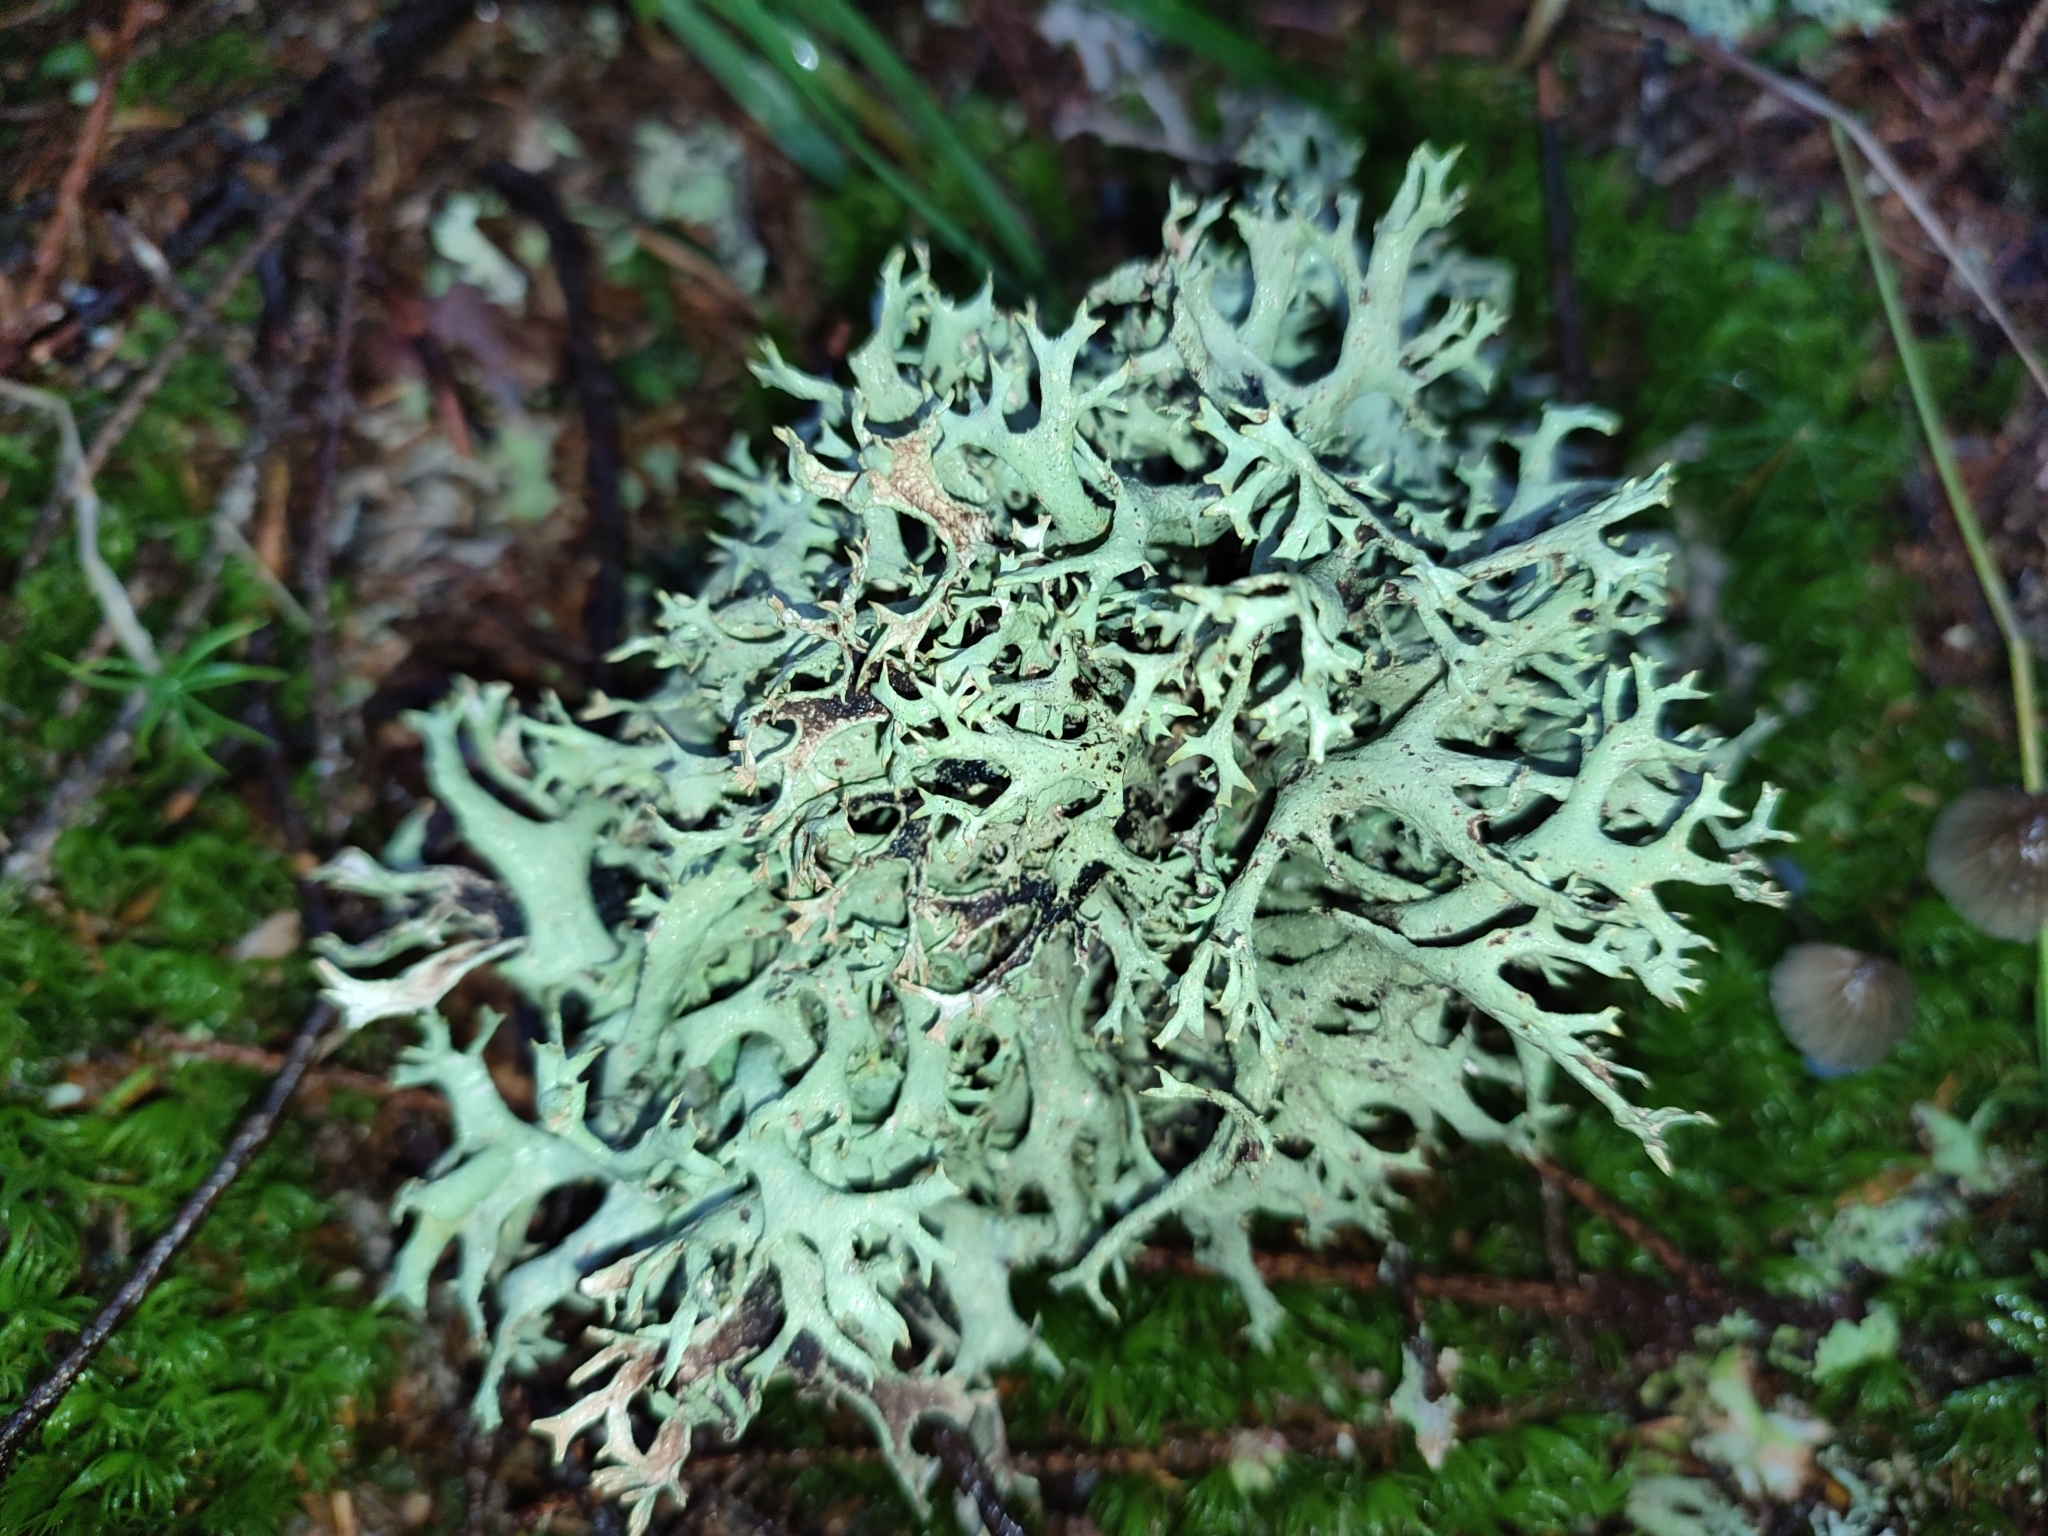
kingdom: Fungi
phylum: Ascomycota
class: Lecanoromycetes
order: Lecanorales
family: Parmeliaceae
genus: Pseudevernia
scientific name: Pseudevernia furfuracea
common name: Tree moss
